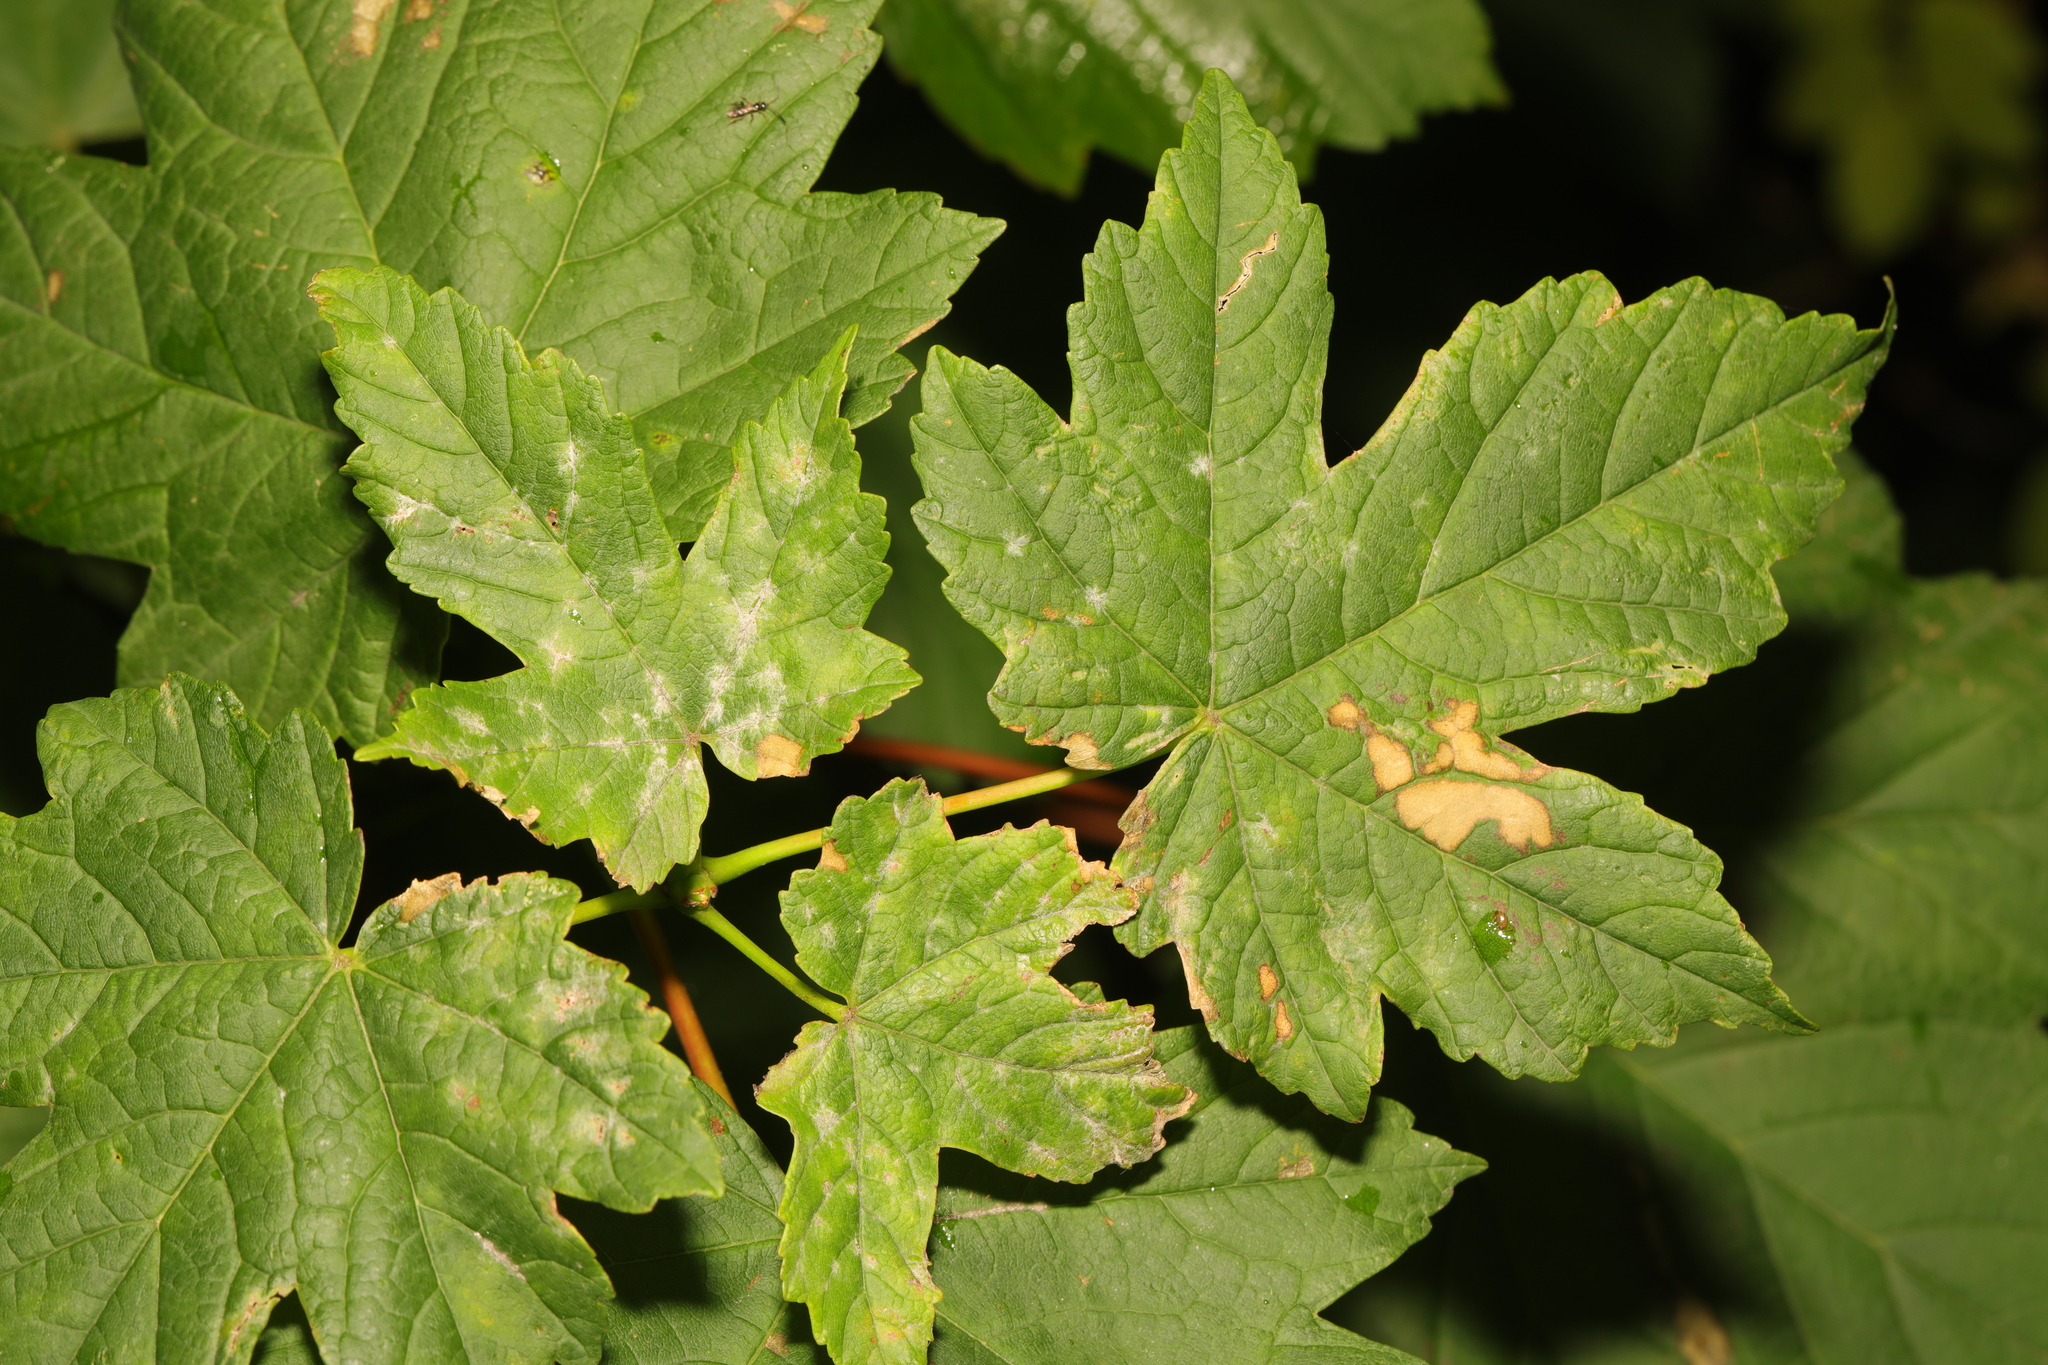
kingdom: Plantae
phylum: Tracheophyta
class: Magnoliopsida
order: Sapindales
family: Sapindaceae
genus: Acer
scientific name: Acer pseudoplatanus
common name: Sycamore
